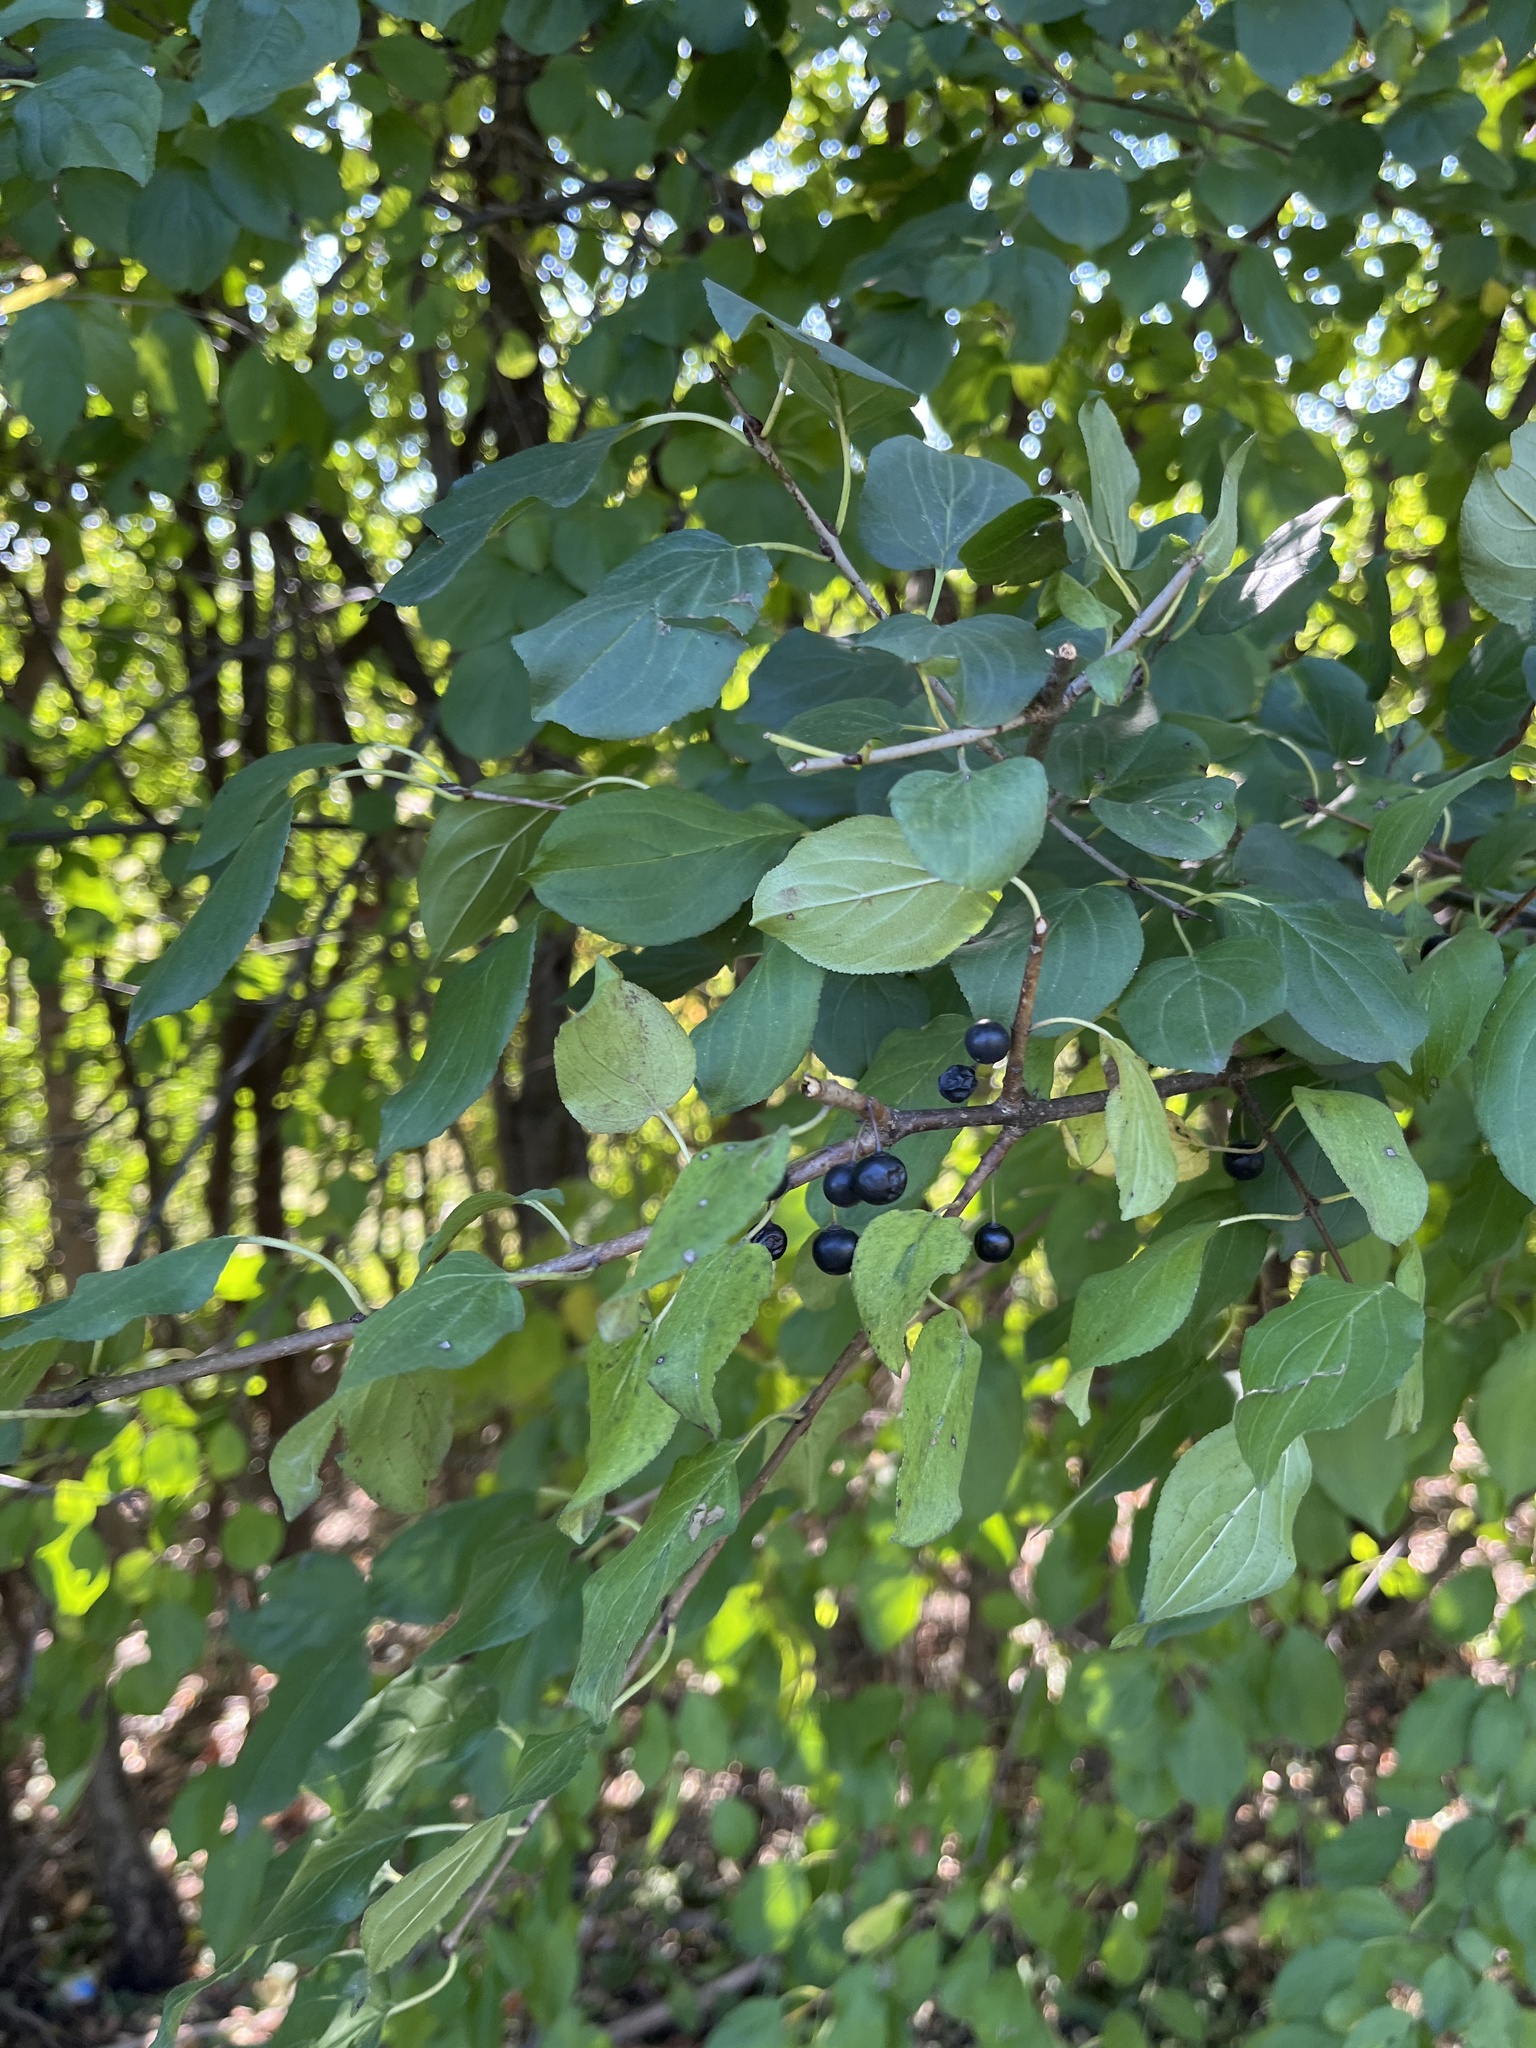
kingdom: Plantae
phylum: Tracheophyta
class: Magnoliopsida
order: Rosales
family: Rhamnaceae
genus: Rhamnus
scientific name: Rhamnus cathartica
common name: Common buckthorn
